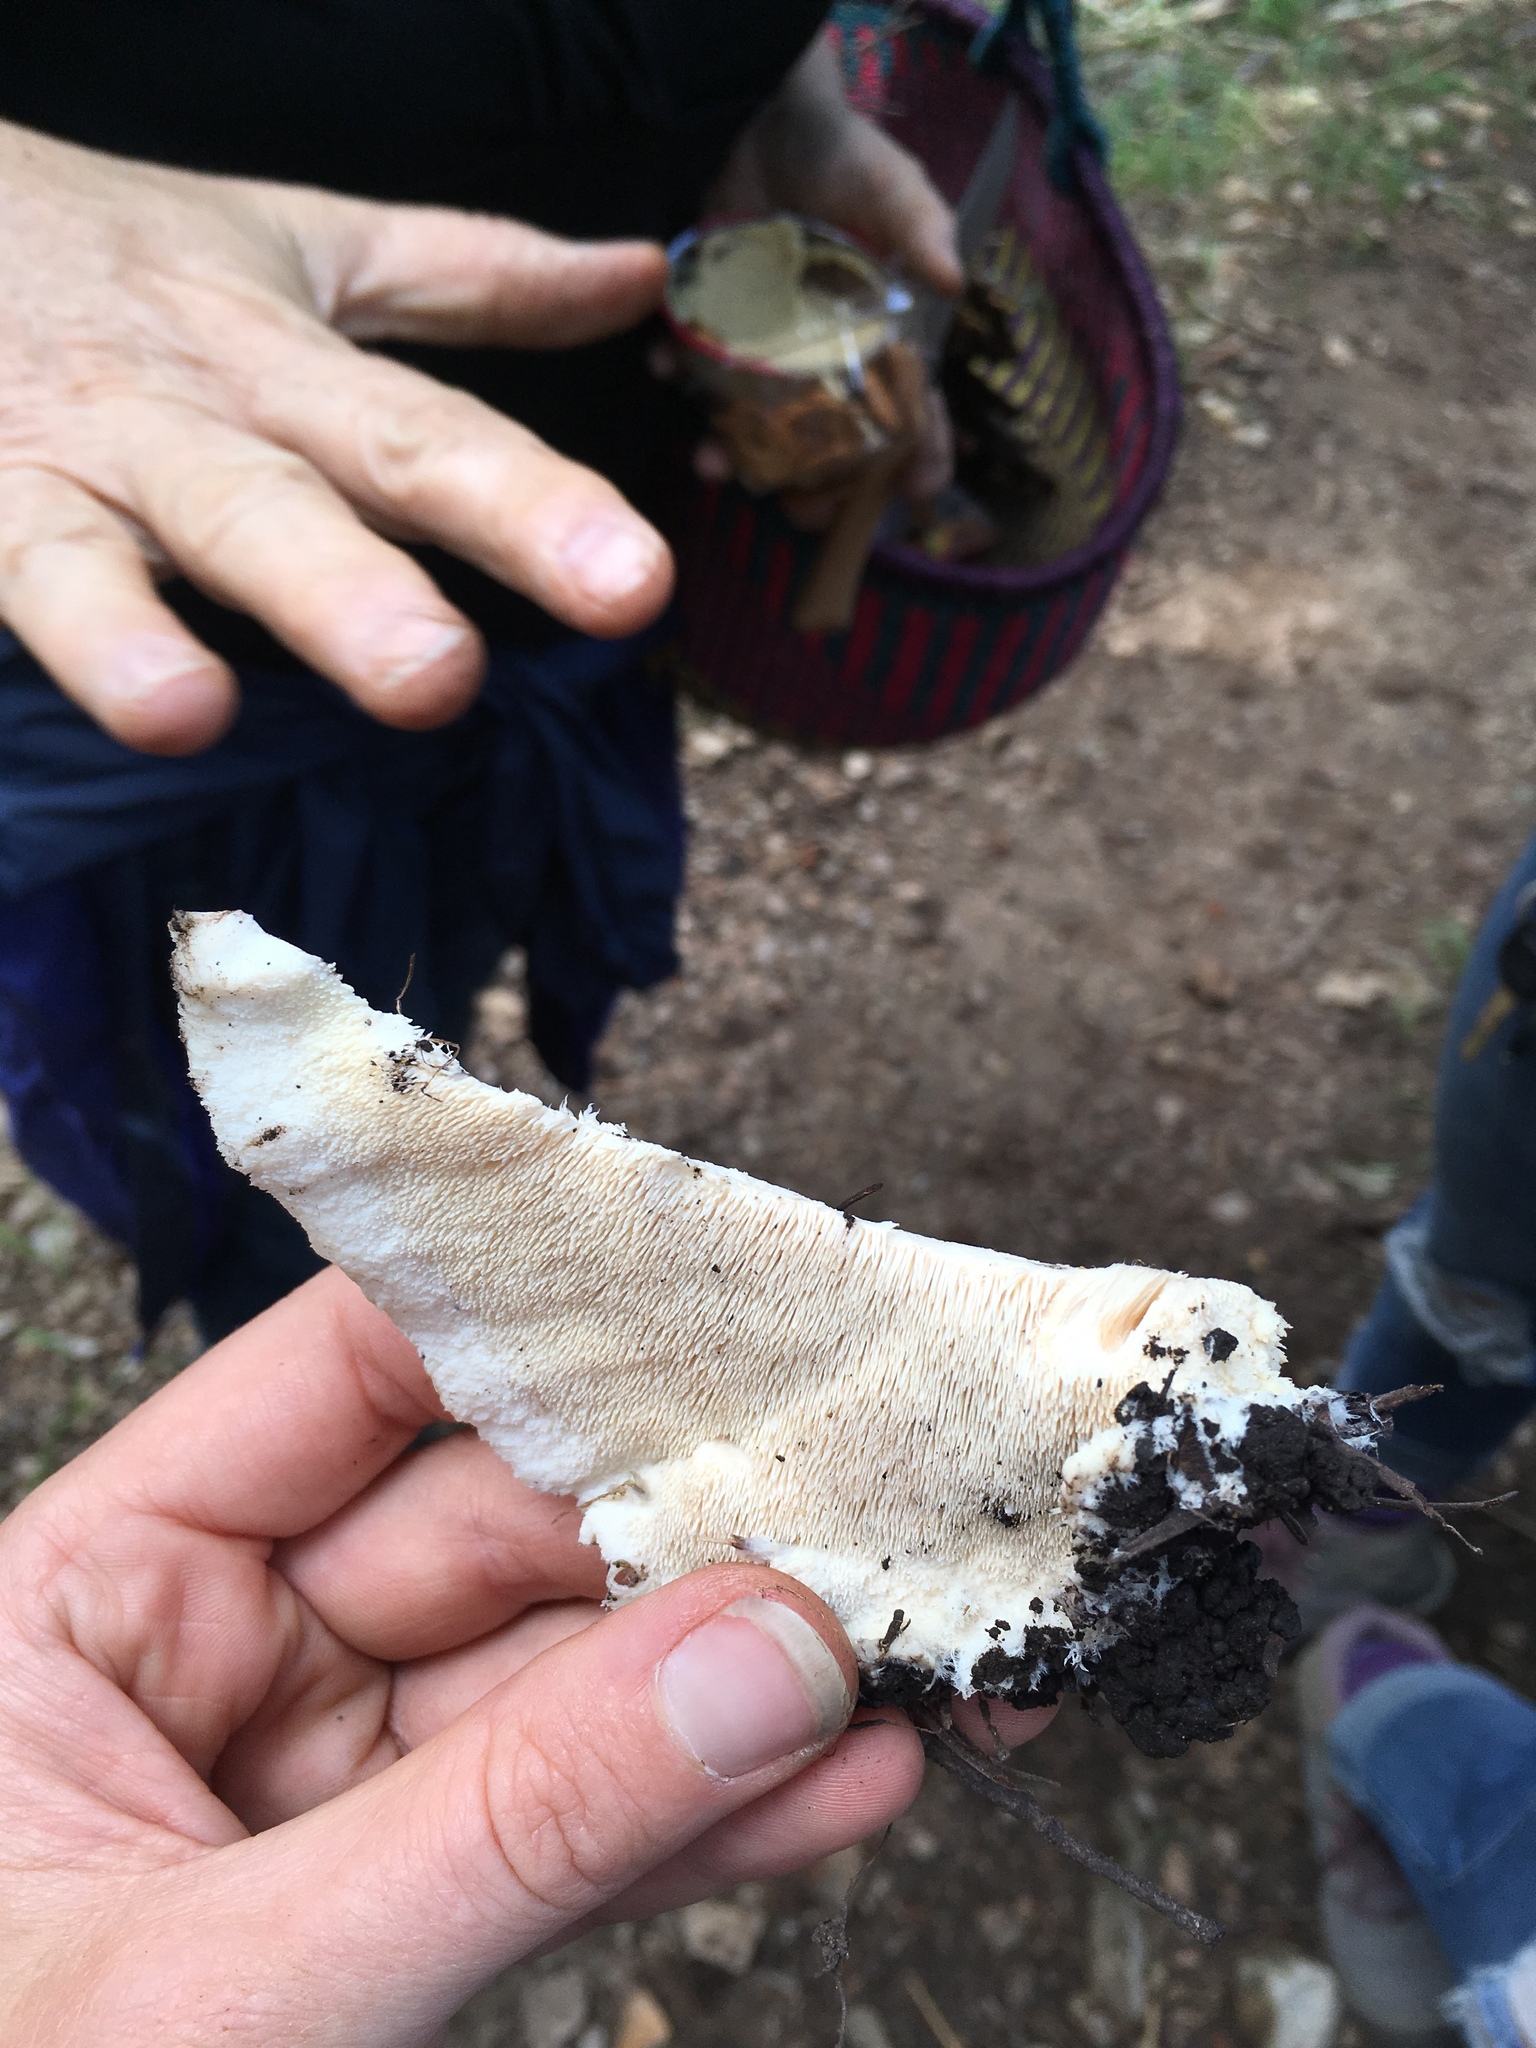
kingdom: Fungi
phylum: Basidiomycota
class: Agaricomycetes
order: Polyporales
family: Meruliaceae
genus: Donkia
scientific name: Donkia pulcherrima
